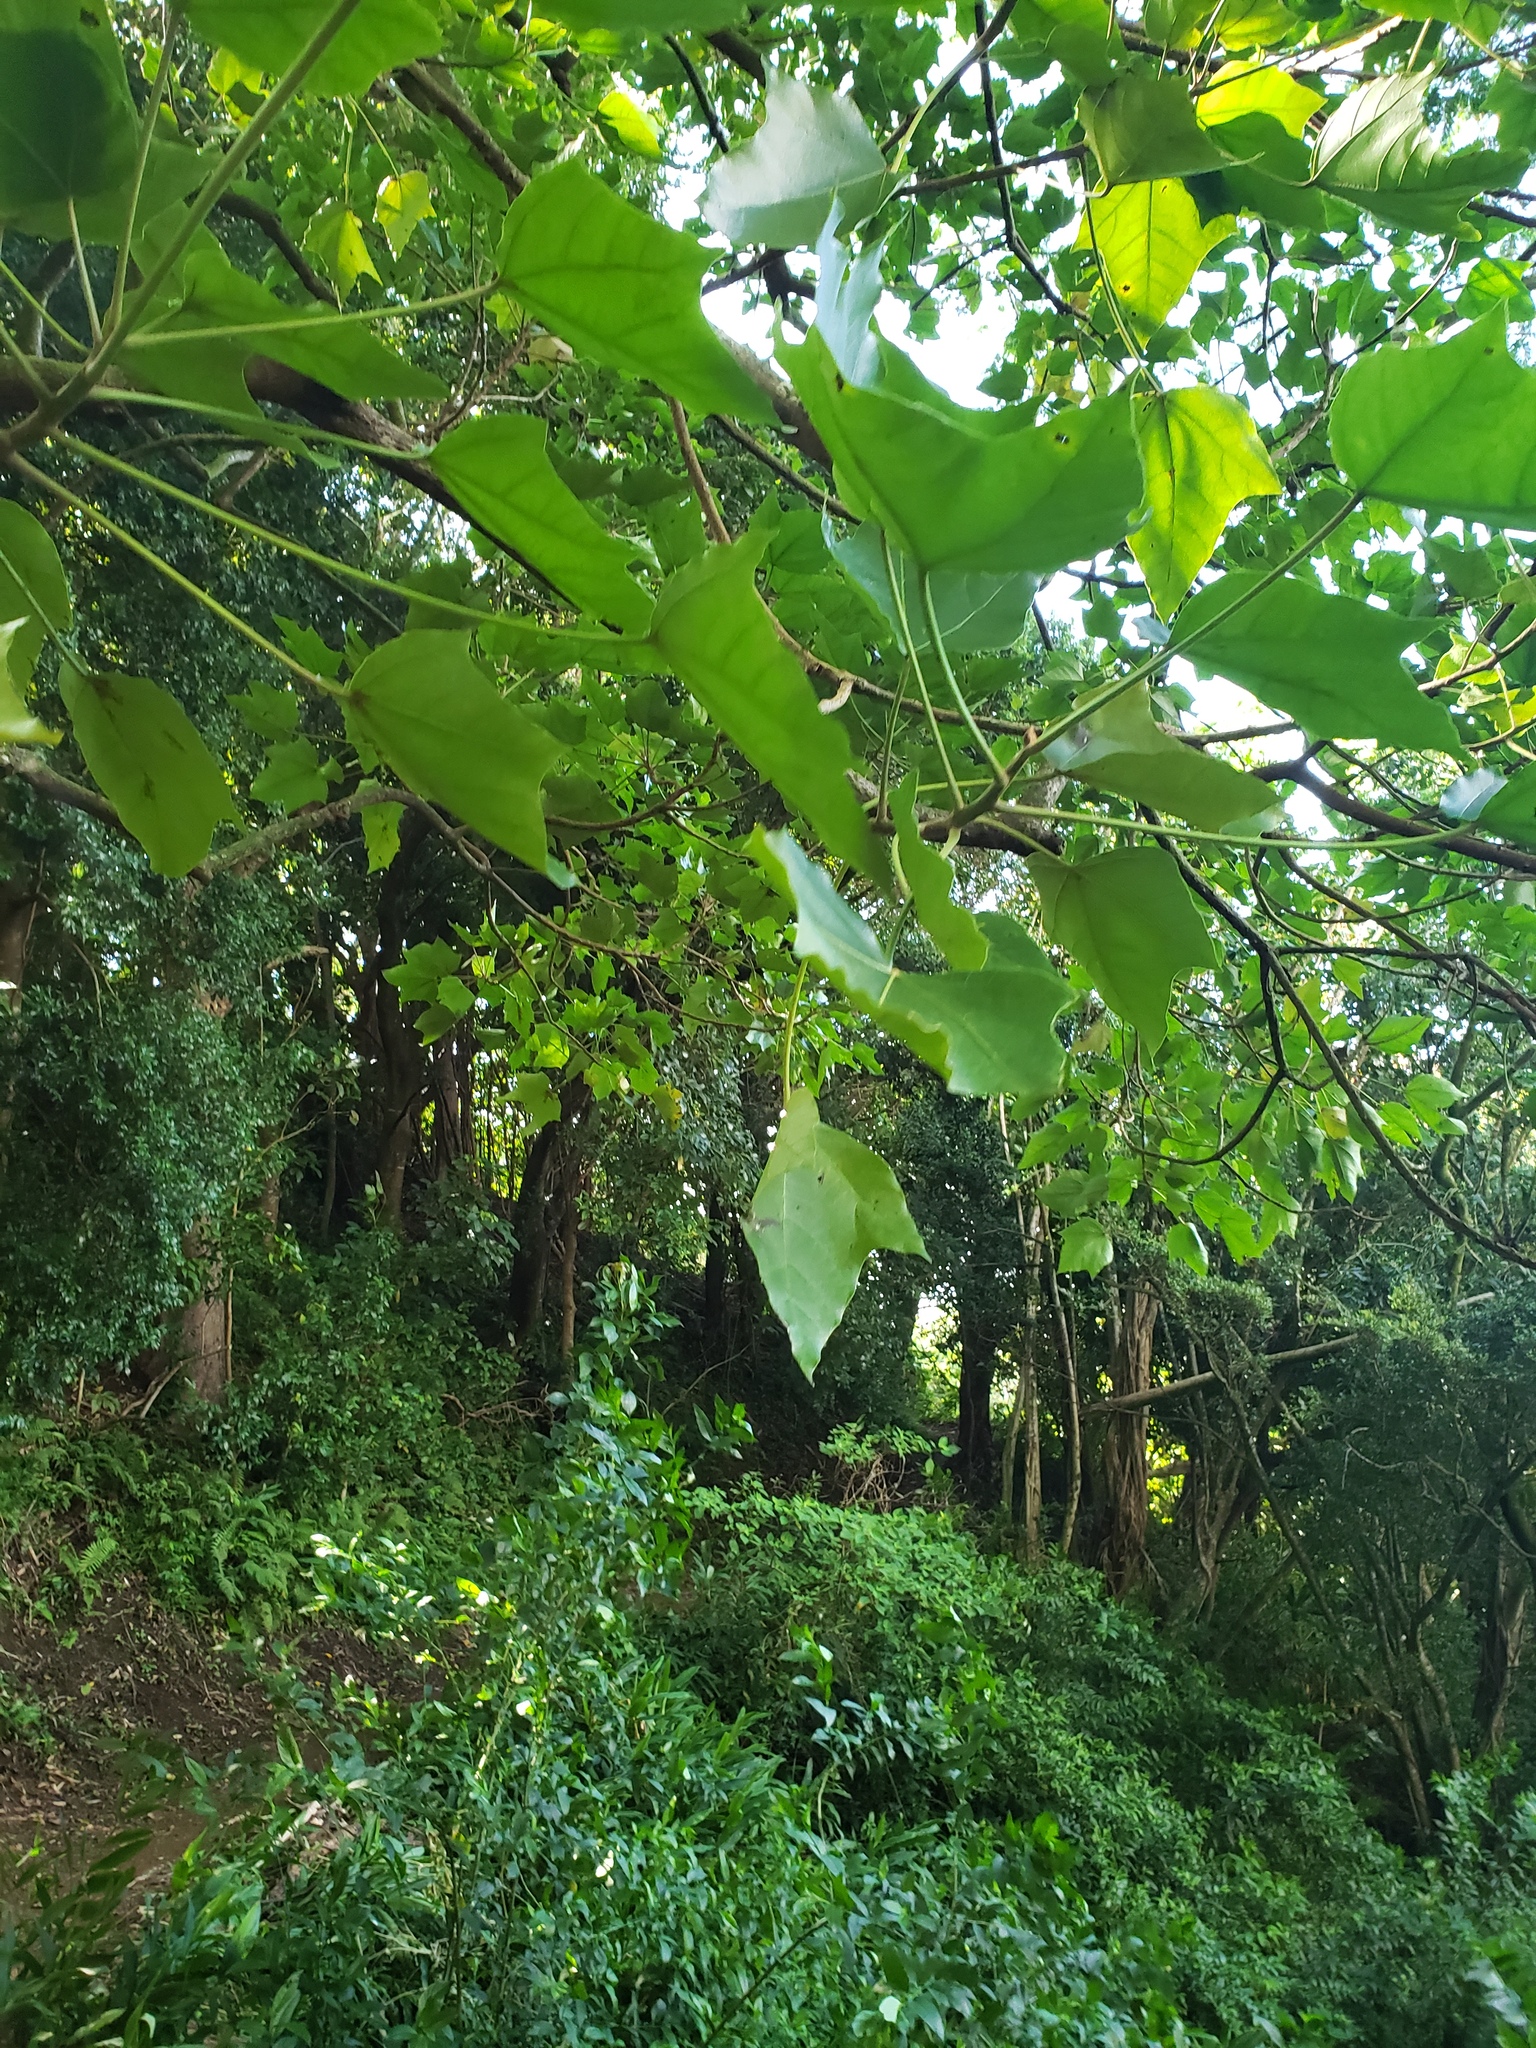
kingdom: Plantae
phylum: Tracheophyta
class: Magnoliopsida
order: Malpighiales
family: Euphorbiaceae
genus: Aleurites
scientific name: Aleurites moluccanus
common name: Candlenut tree
